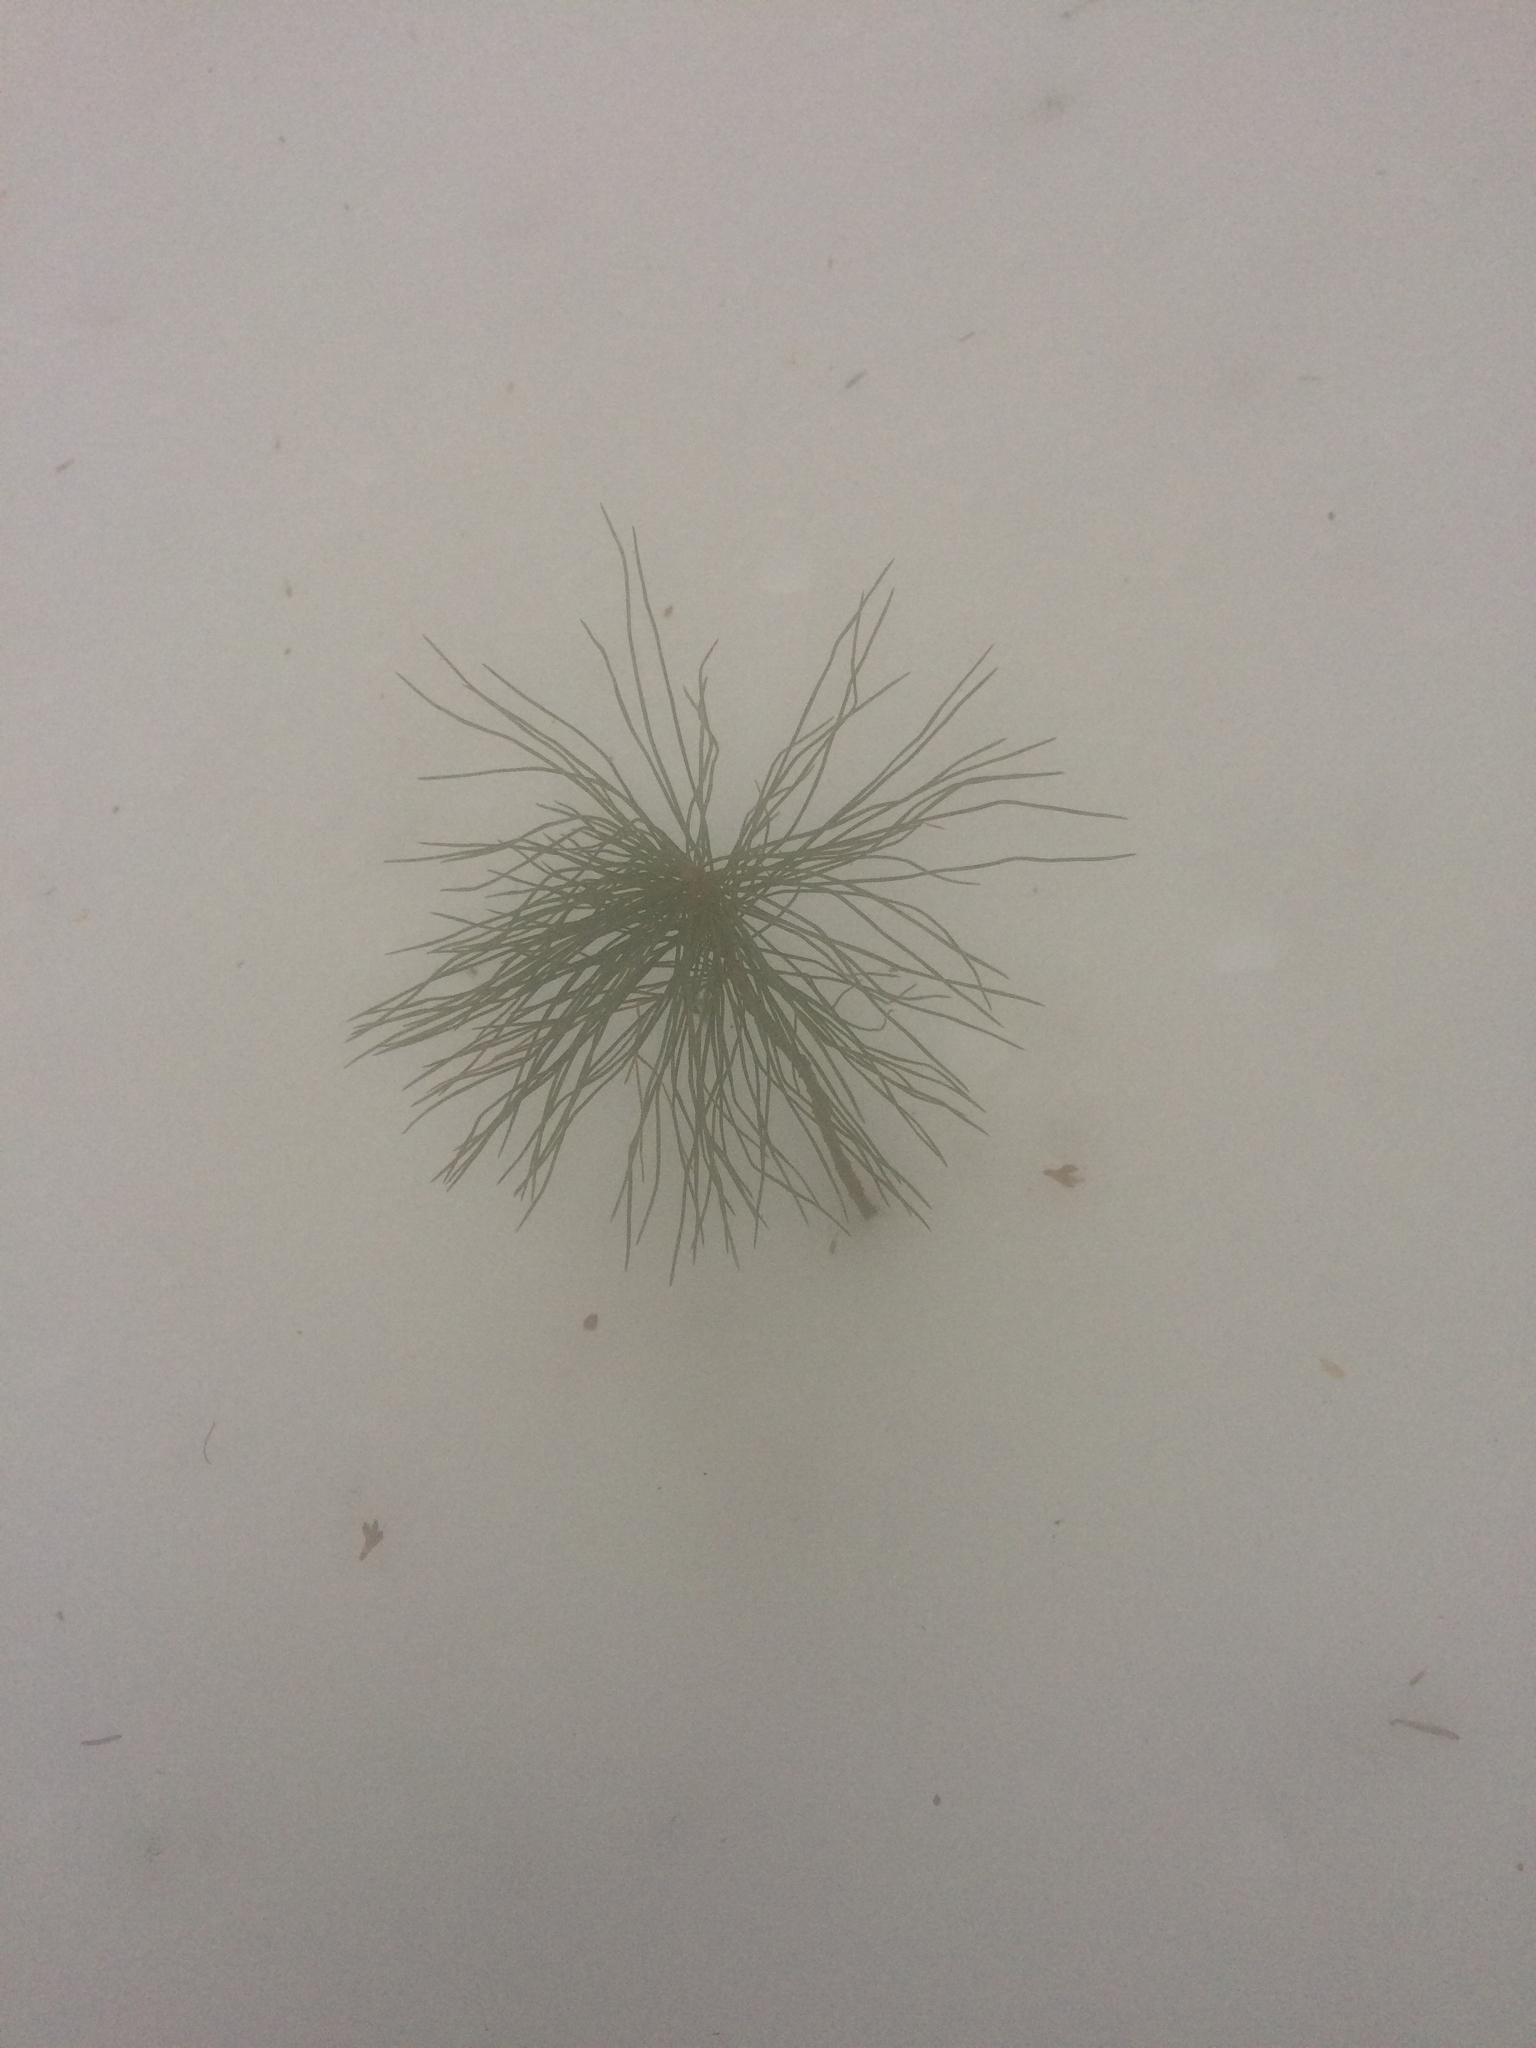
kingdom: Plantae
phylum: Tracheophyta
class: Pinopsida
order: Pinales
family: Pinaceae
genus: Pinus
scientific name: Pinus strobus
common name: Weymouth pine
